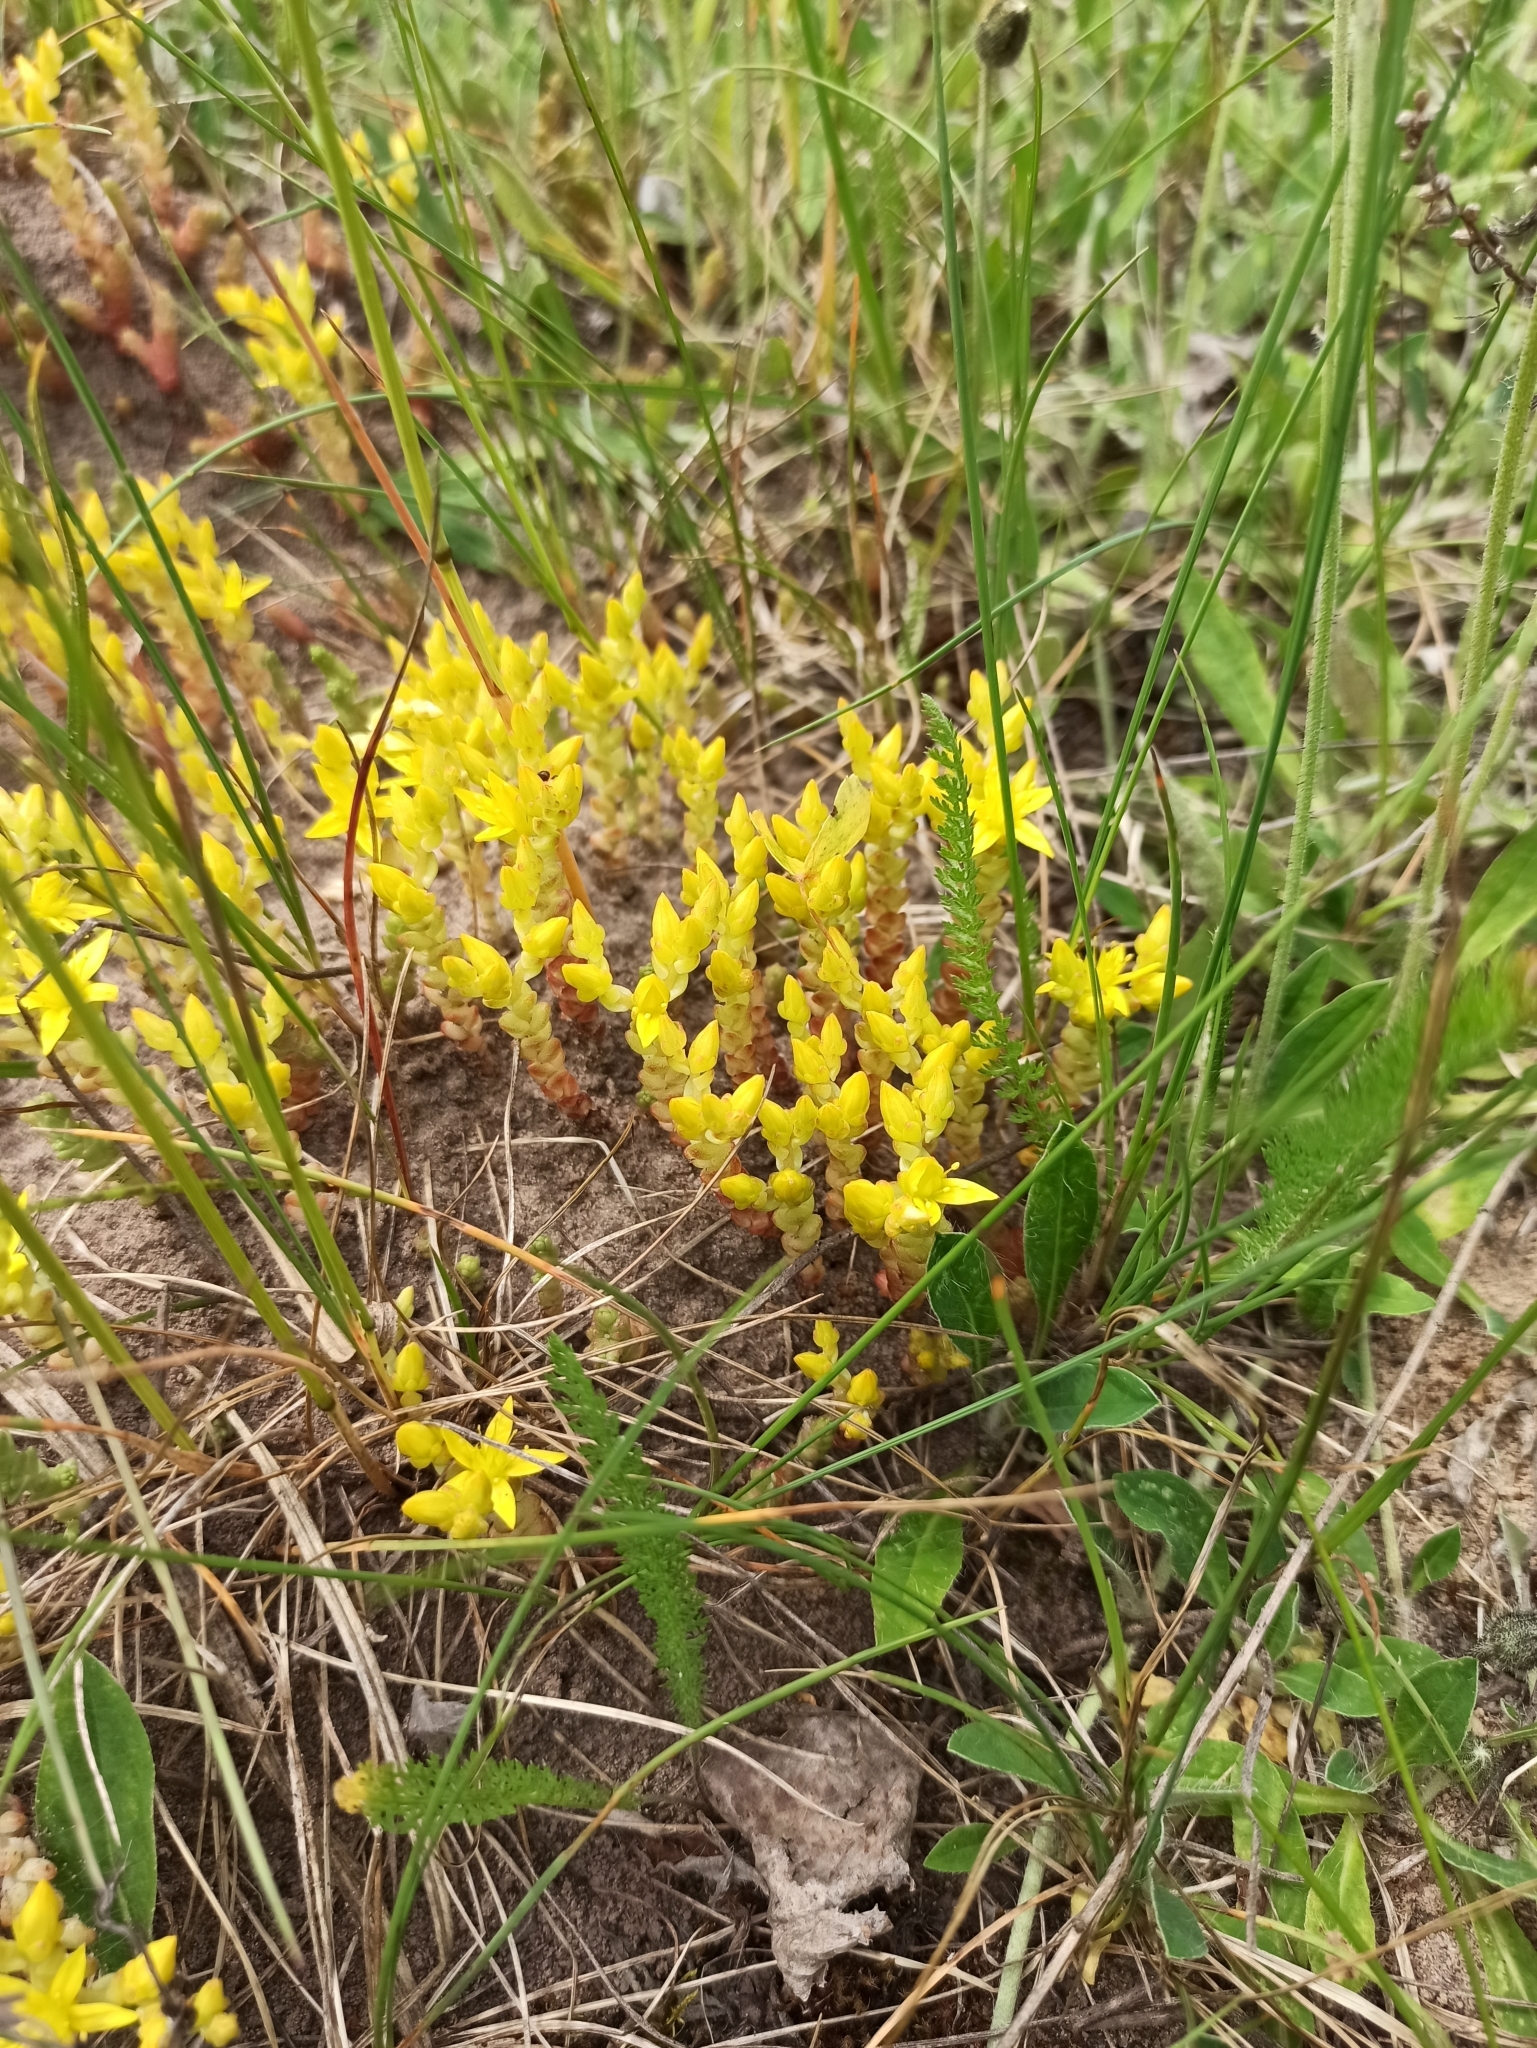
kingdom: Plantae
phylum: Tracheophyta
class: Magnoliopsida
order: Saxifragales
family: Crassulaceae
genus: Sedum
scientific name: Sedum acre
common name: Biting stonecrop
